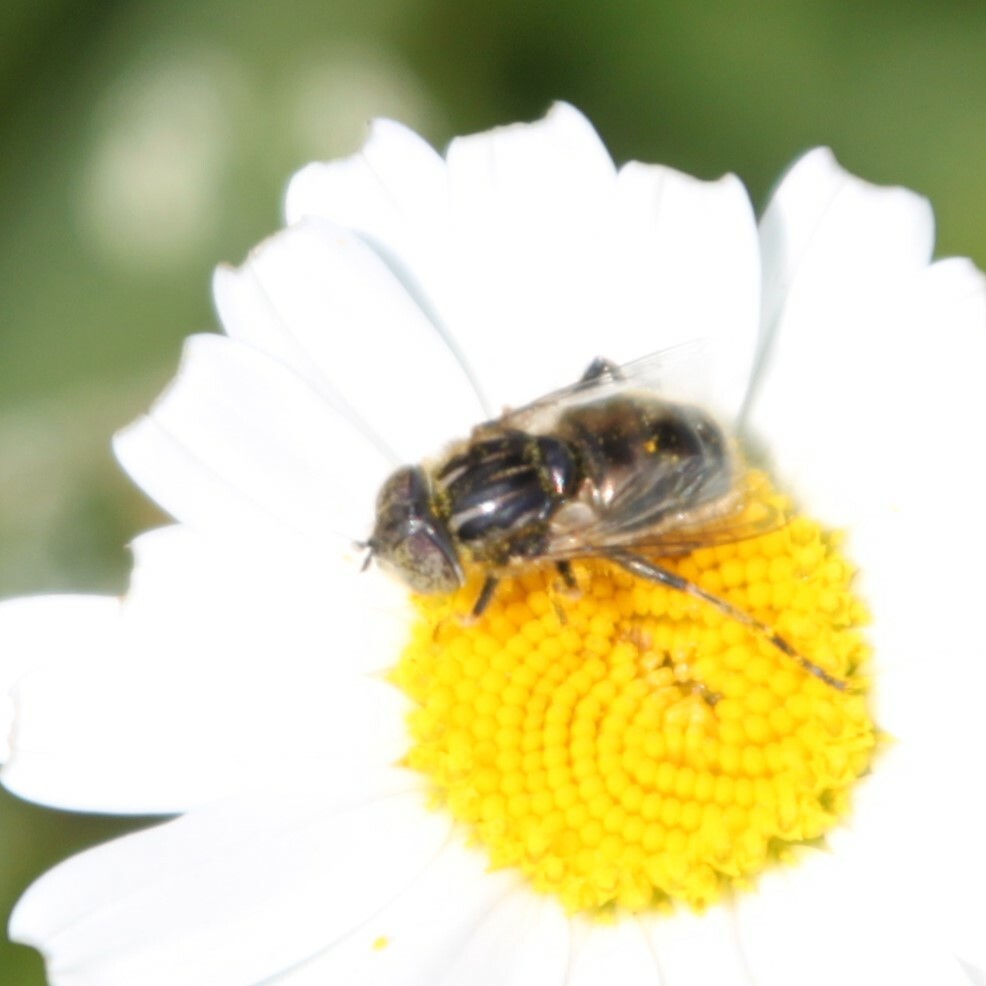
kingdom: Animalia
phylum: Arthropoda
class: Insecta
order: Diptera
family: Syrphidae
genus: Eristalinus
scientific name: Eristalinus sepulchralis
